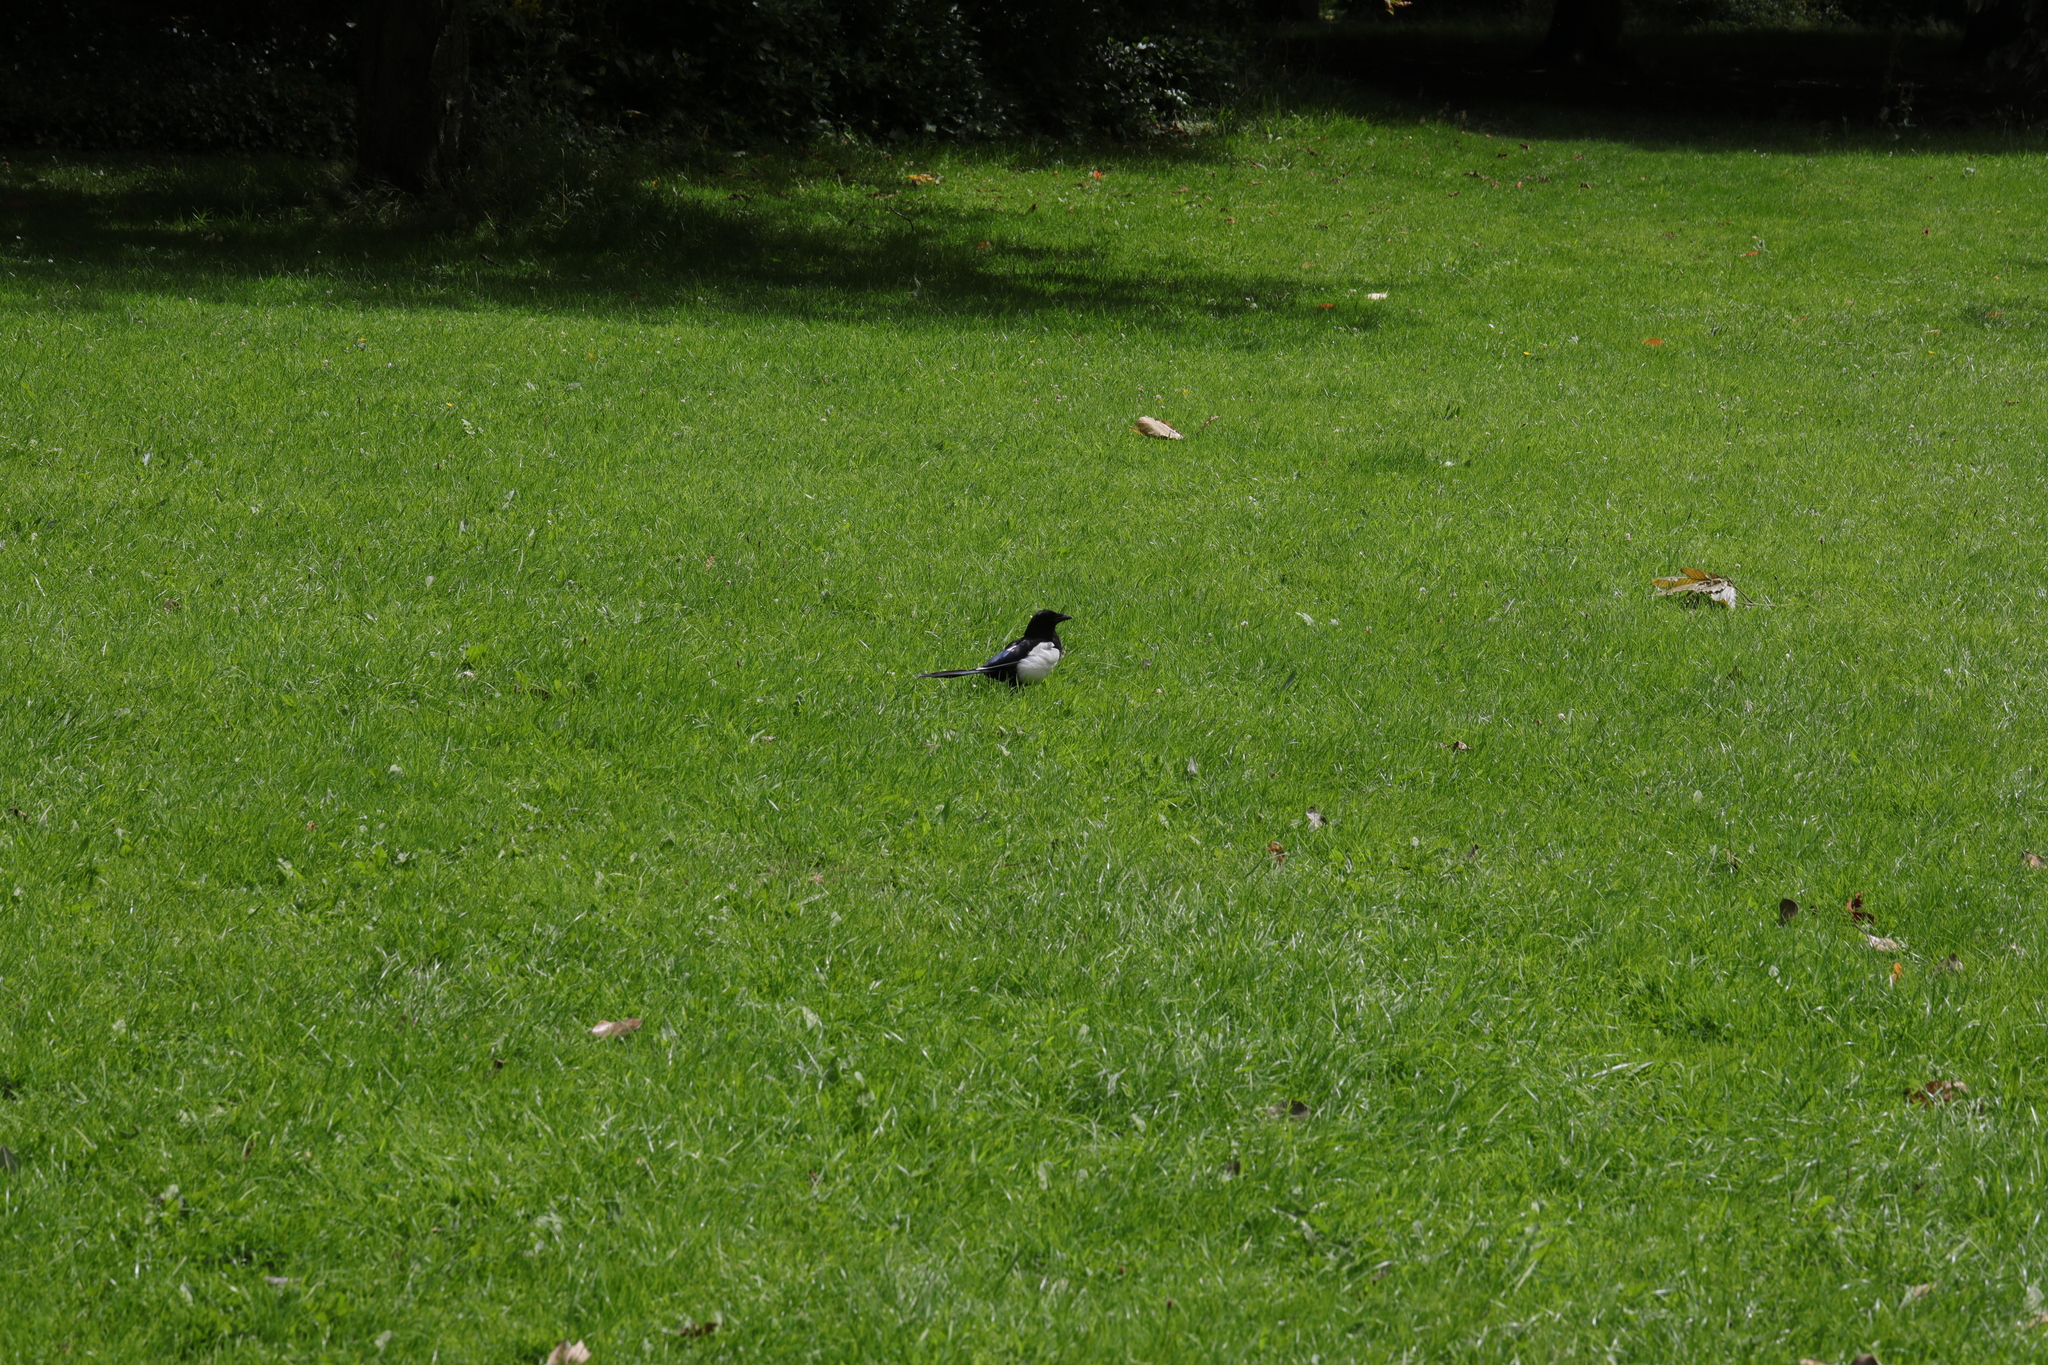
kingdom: Animalia
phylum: Chordata
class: Aves
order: Passeriformes
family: Corvidae
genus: Pica
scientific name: Pica pica
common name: Eurasian magpie
